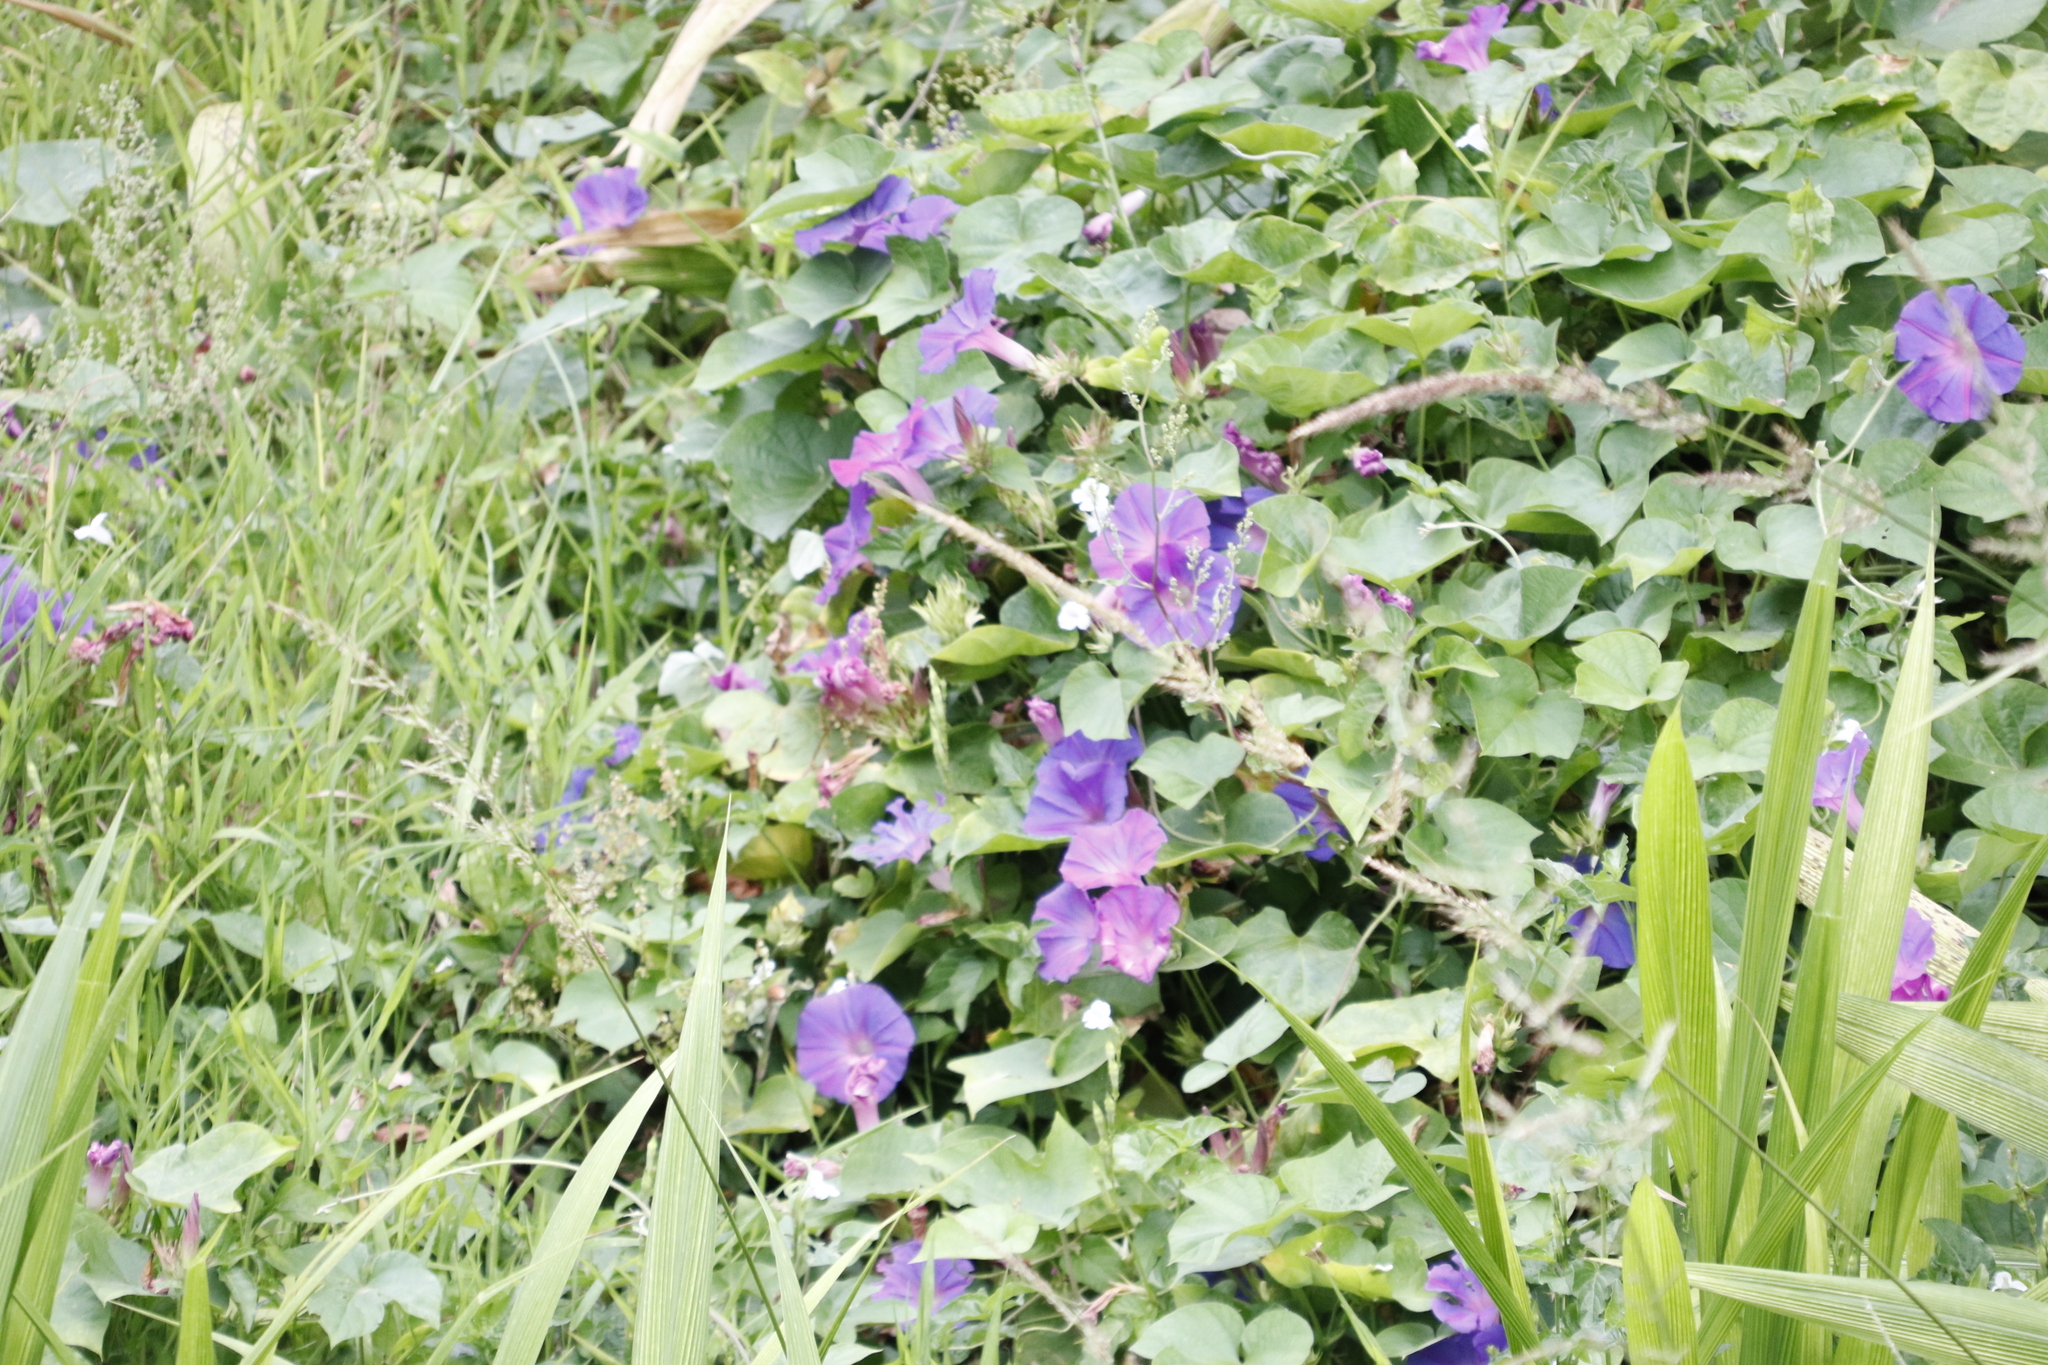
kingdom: Plantae
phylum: Tracheophyta
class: Magnoliopsida
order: Solanales
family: Convolvulaceae
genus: Ipomoea
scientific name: Ipomoea indica
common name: Blue dawnflower
